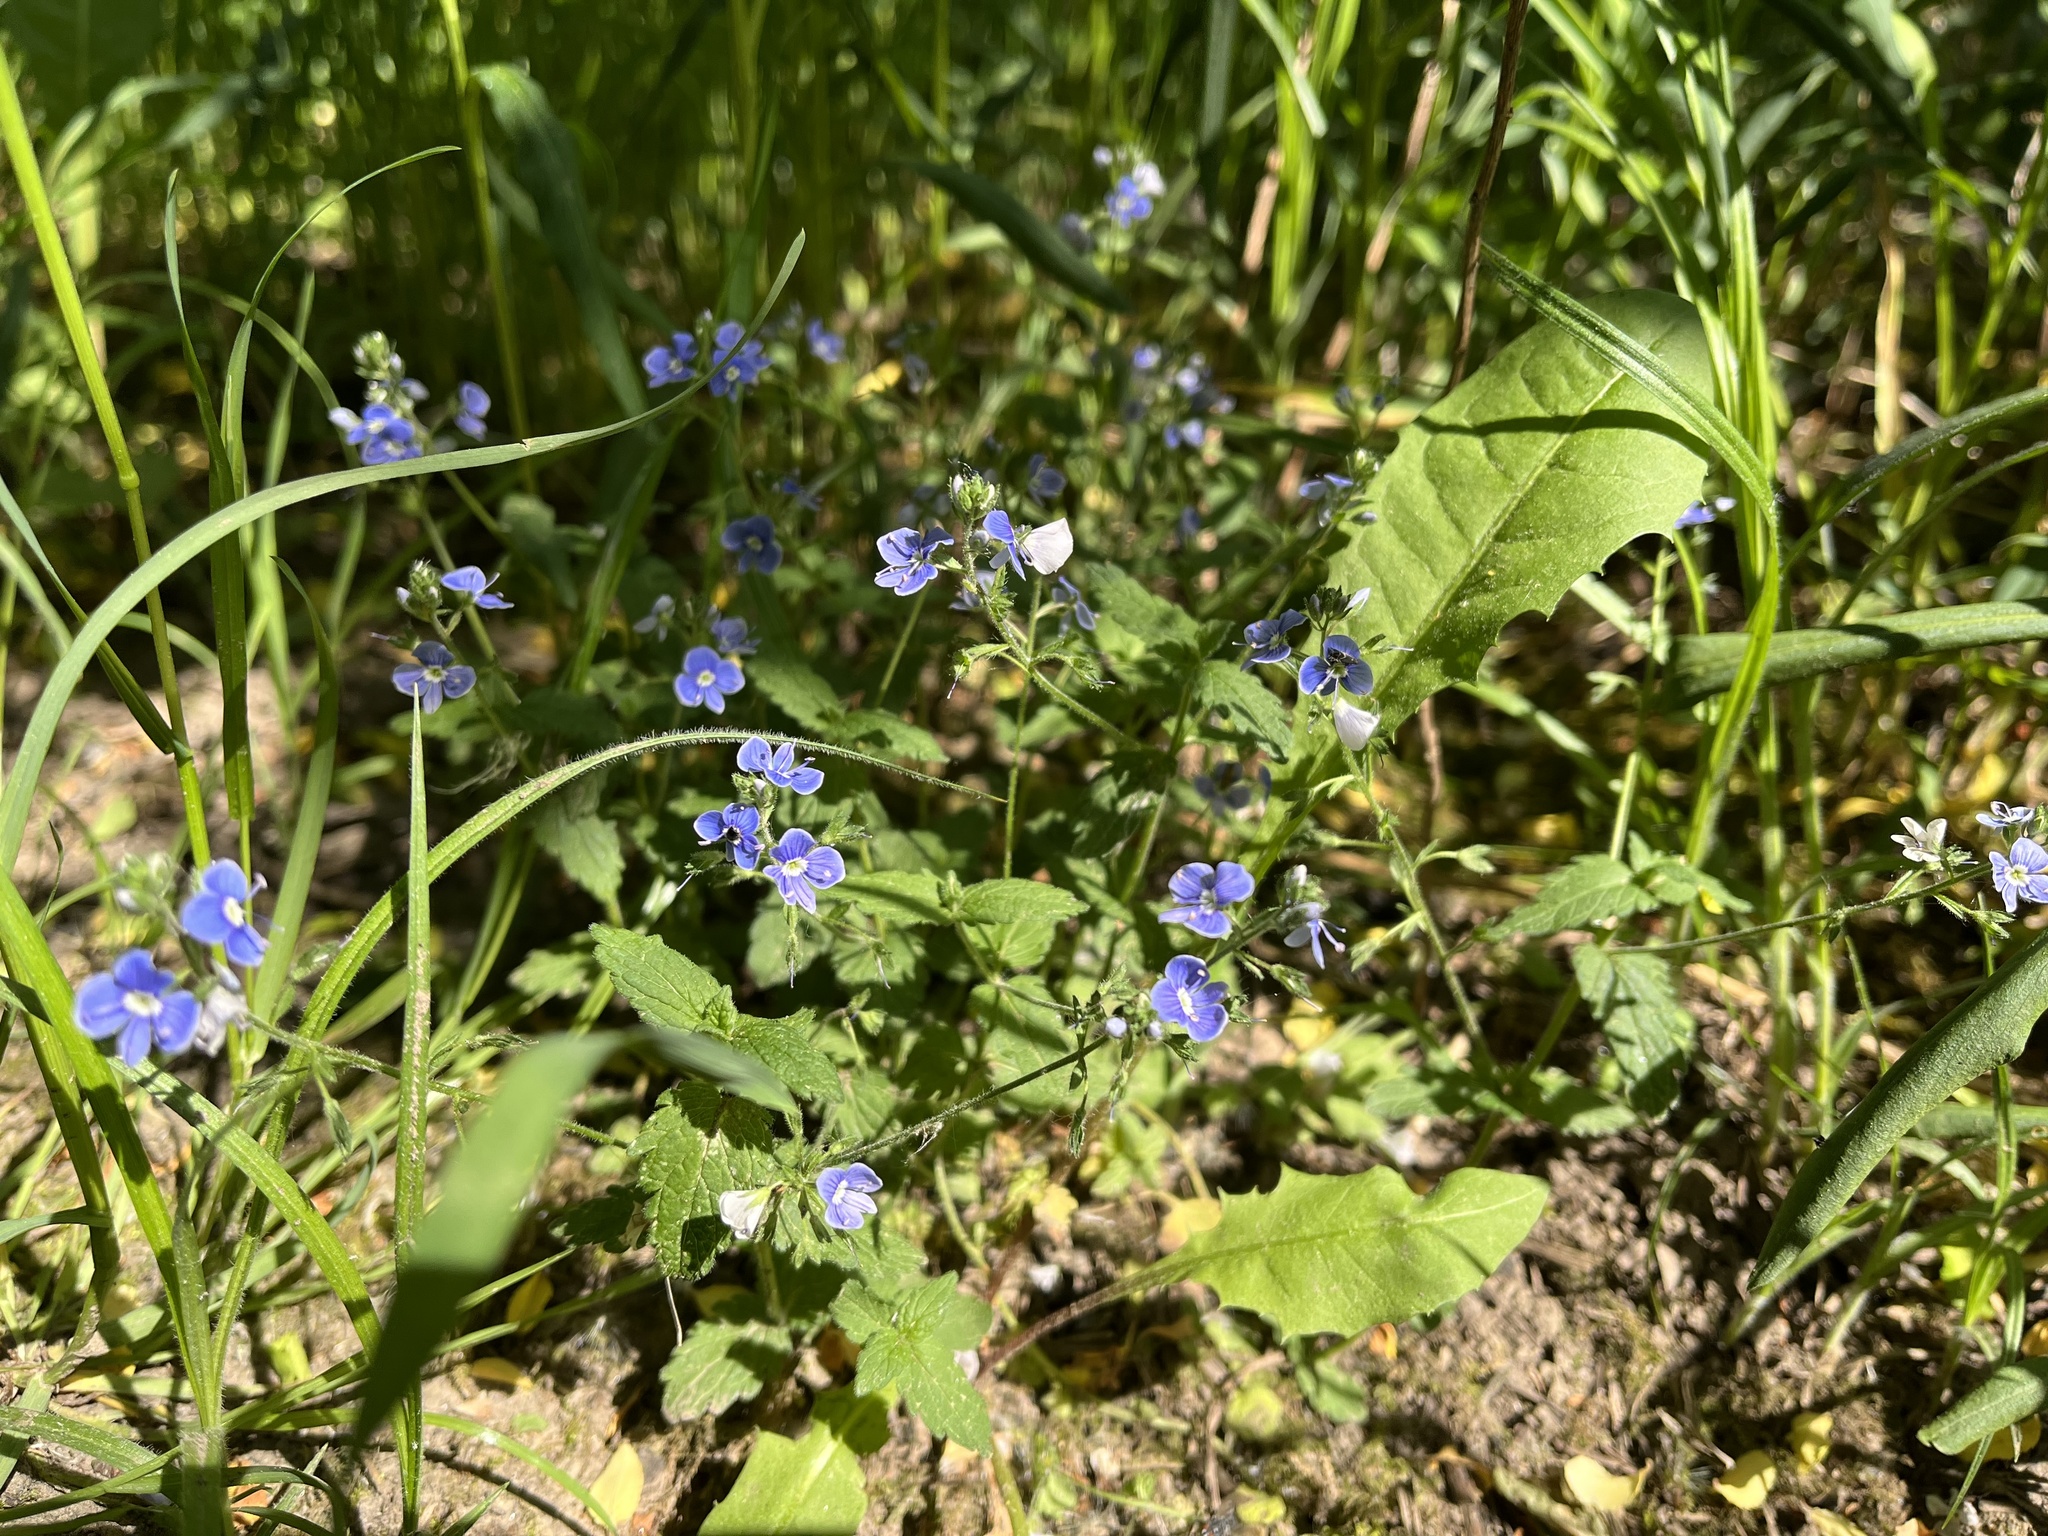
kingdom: Plantae
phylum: Tracheophyta
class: Magnoliopsida
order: Lamiales
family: Plantaginaceae
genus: Veronica
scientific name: Veronica chamaedrys
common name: Germander speedwell
